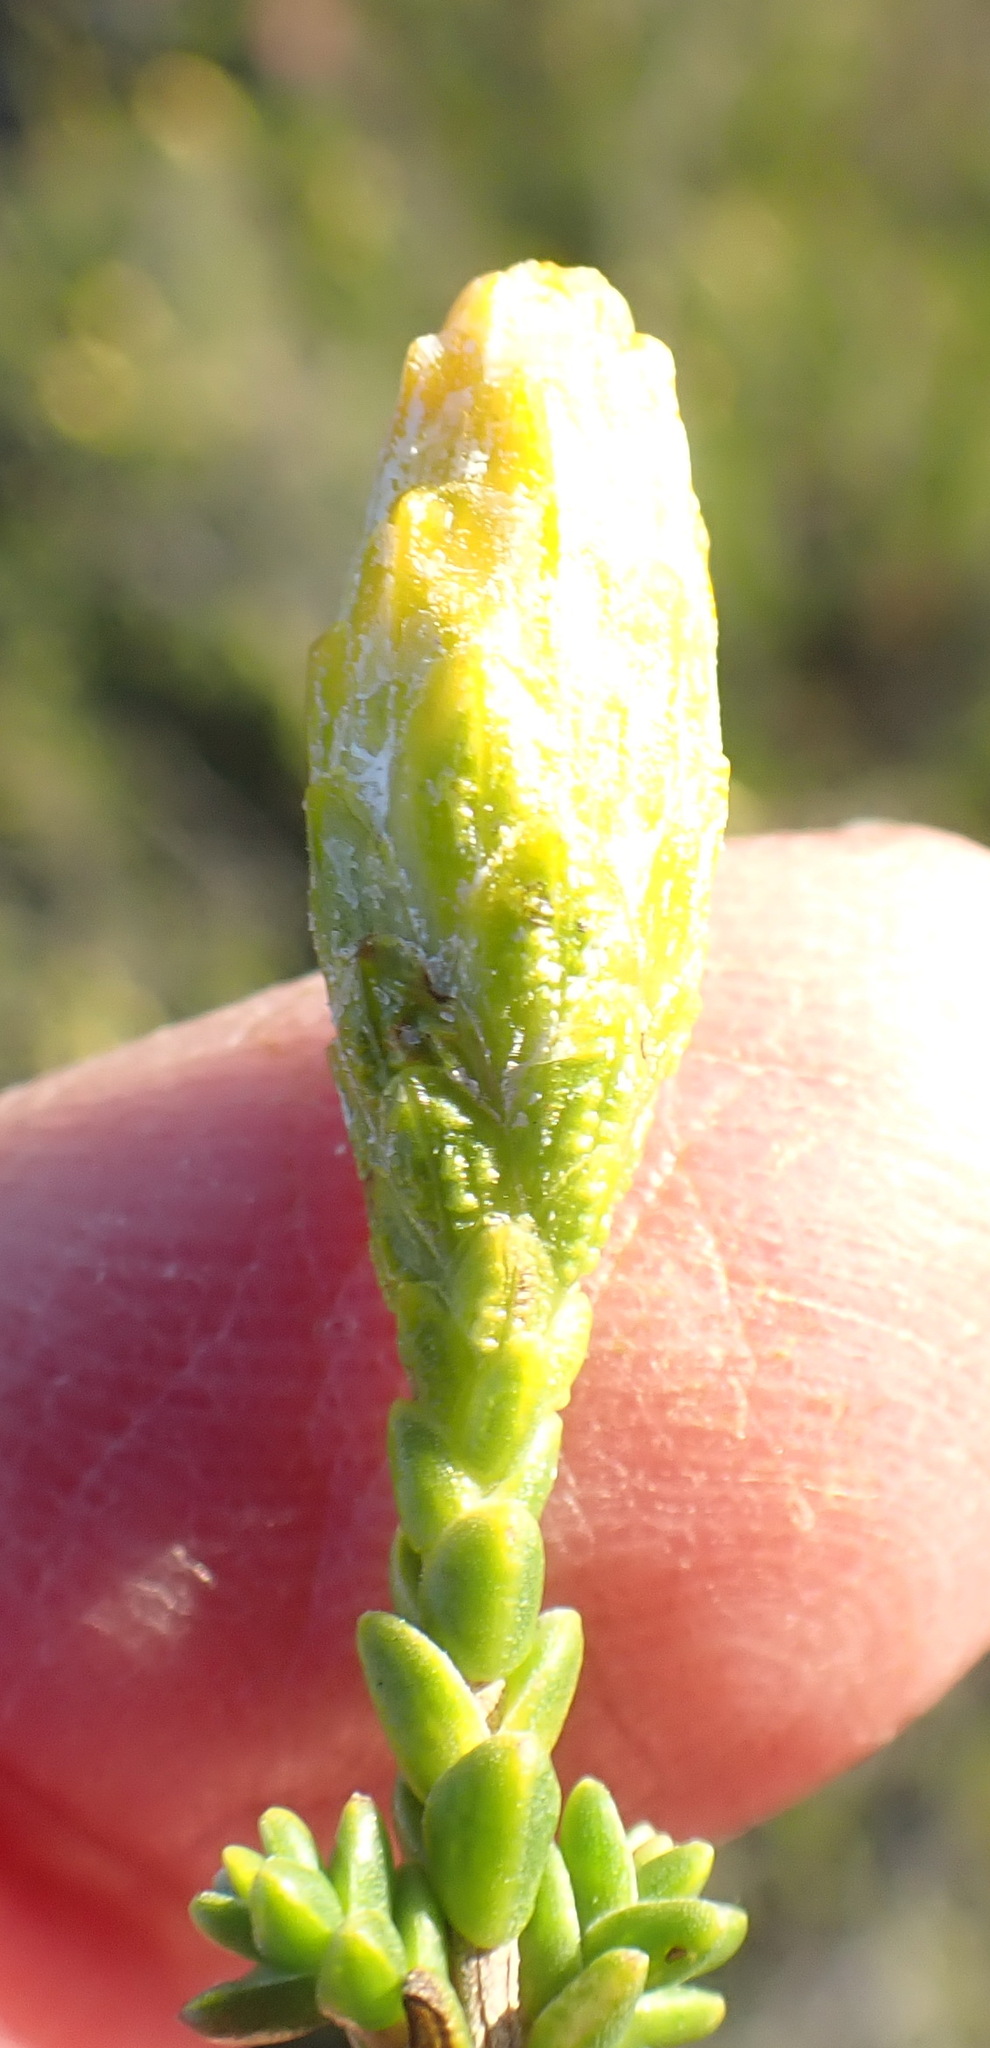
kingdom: Plantae
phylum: Tracheophyta
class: Magnoliopsida
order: Asterales
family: Asteraceae
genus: Pteronia
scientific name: Pteronia glomerata
